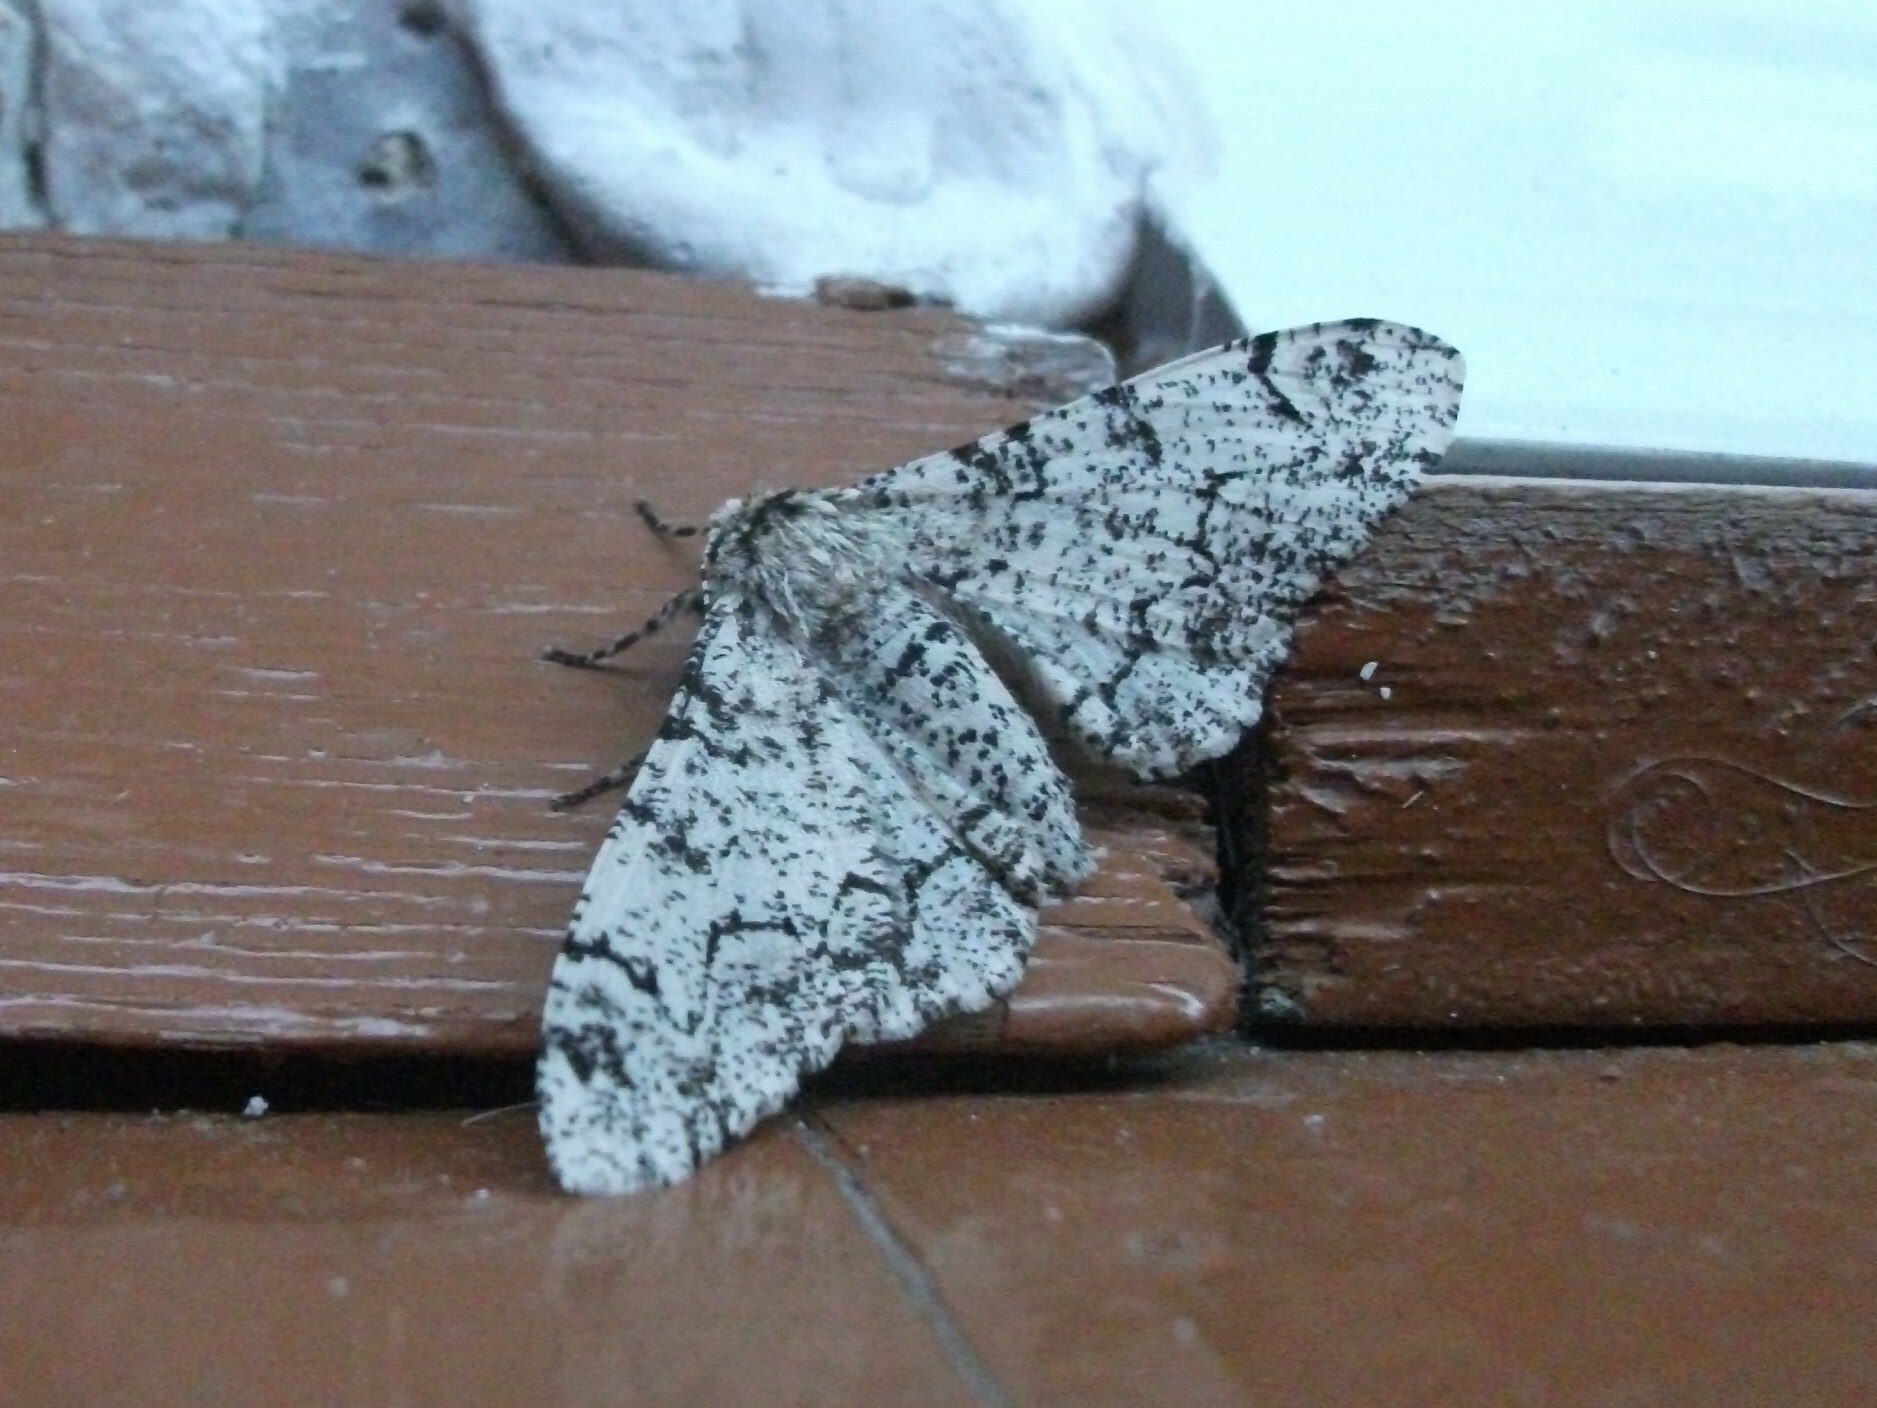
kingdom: Animalia
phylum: Arthropoda
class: Insecta
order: Lepidoptera
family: Geometridae
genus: Biston
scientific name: Biston betularia
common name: Peppered moth
